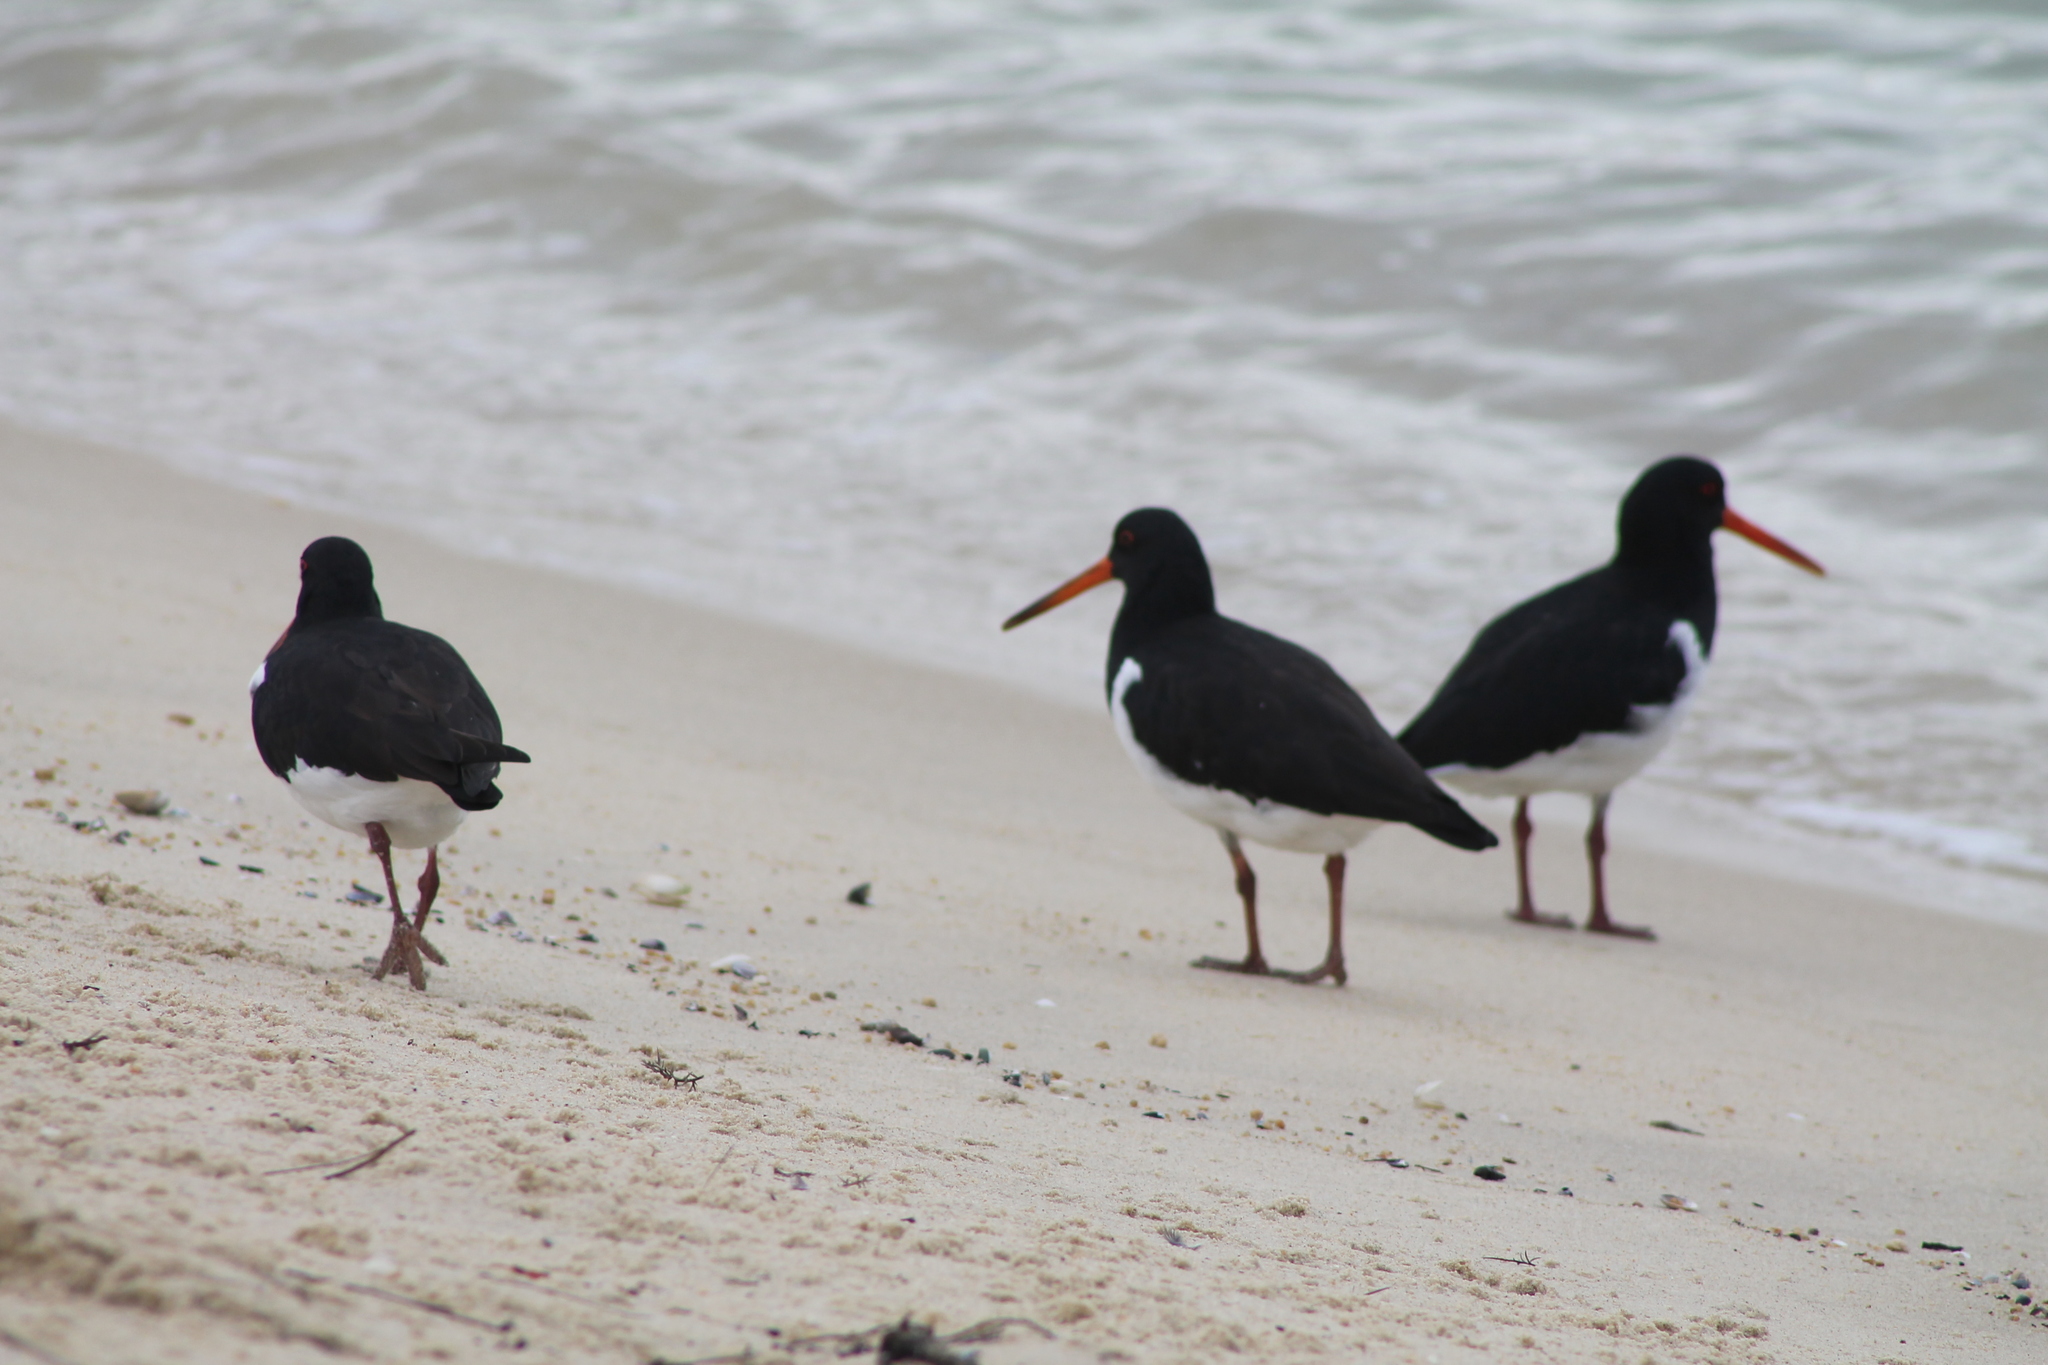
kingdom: Animalia
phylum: Chordata
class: Aves
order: Charadriiformes
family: Haematopodidae
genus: Haematopus
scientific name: Haematopus finschi
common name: South island oystercatcher
